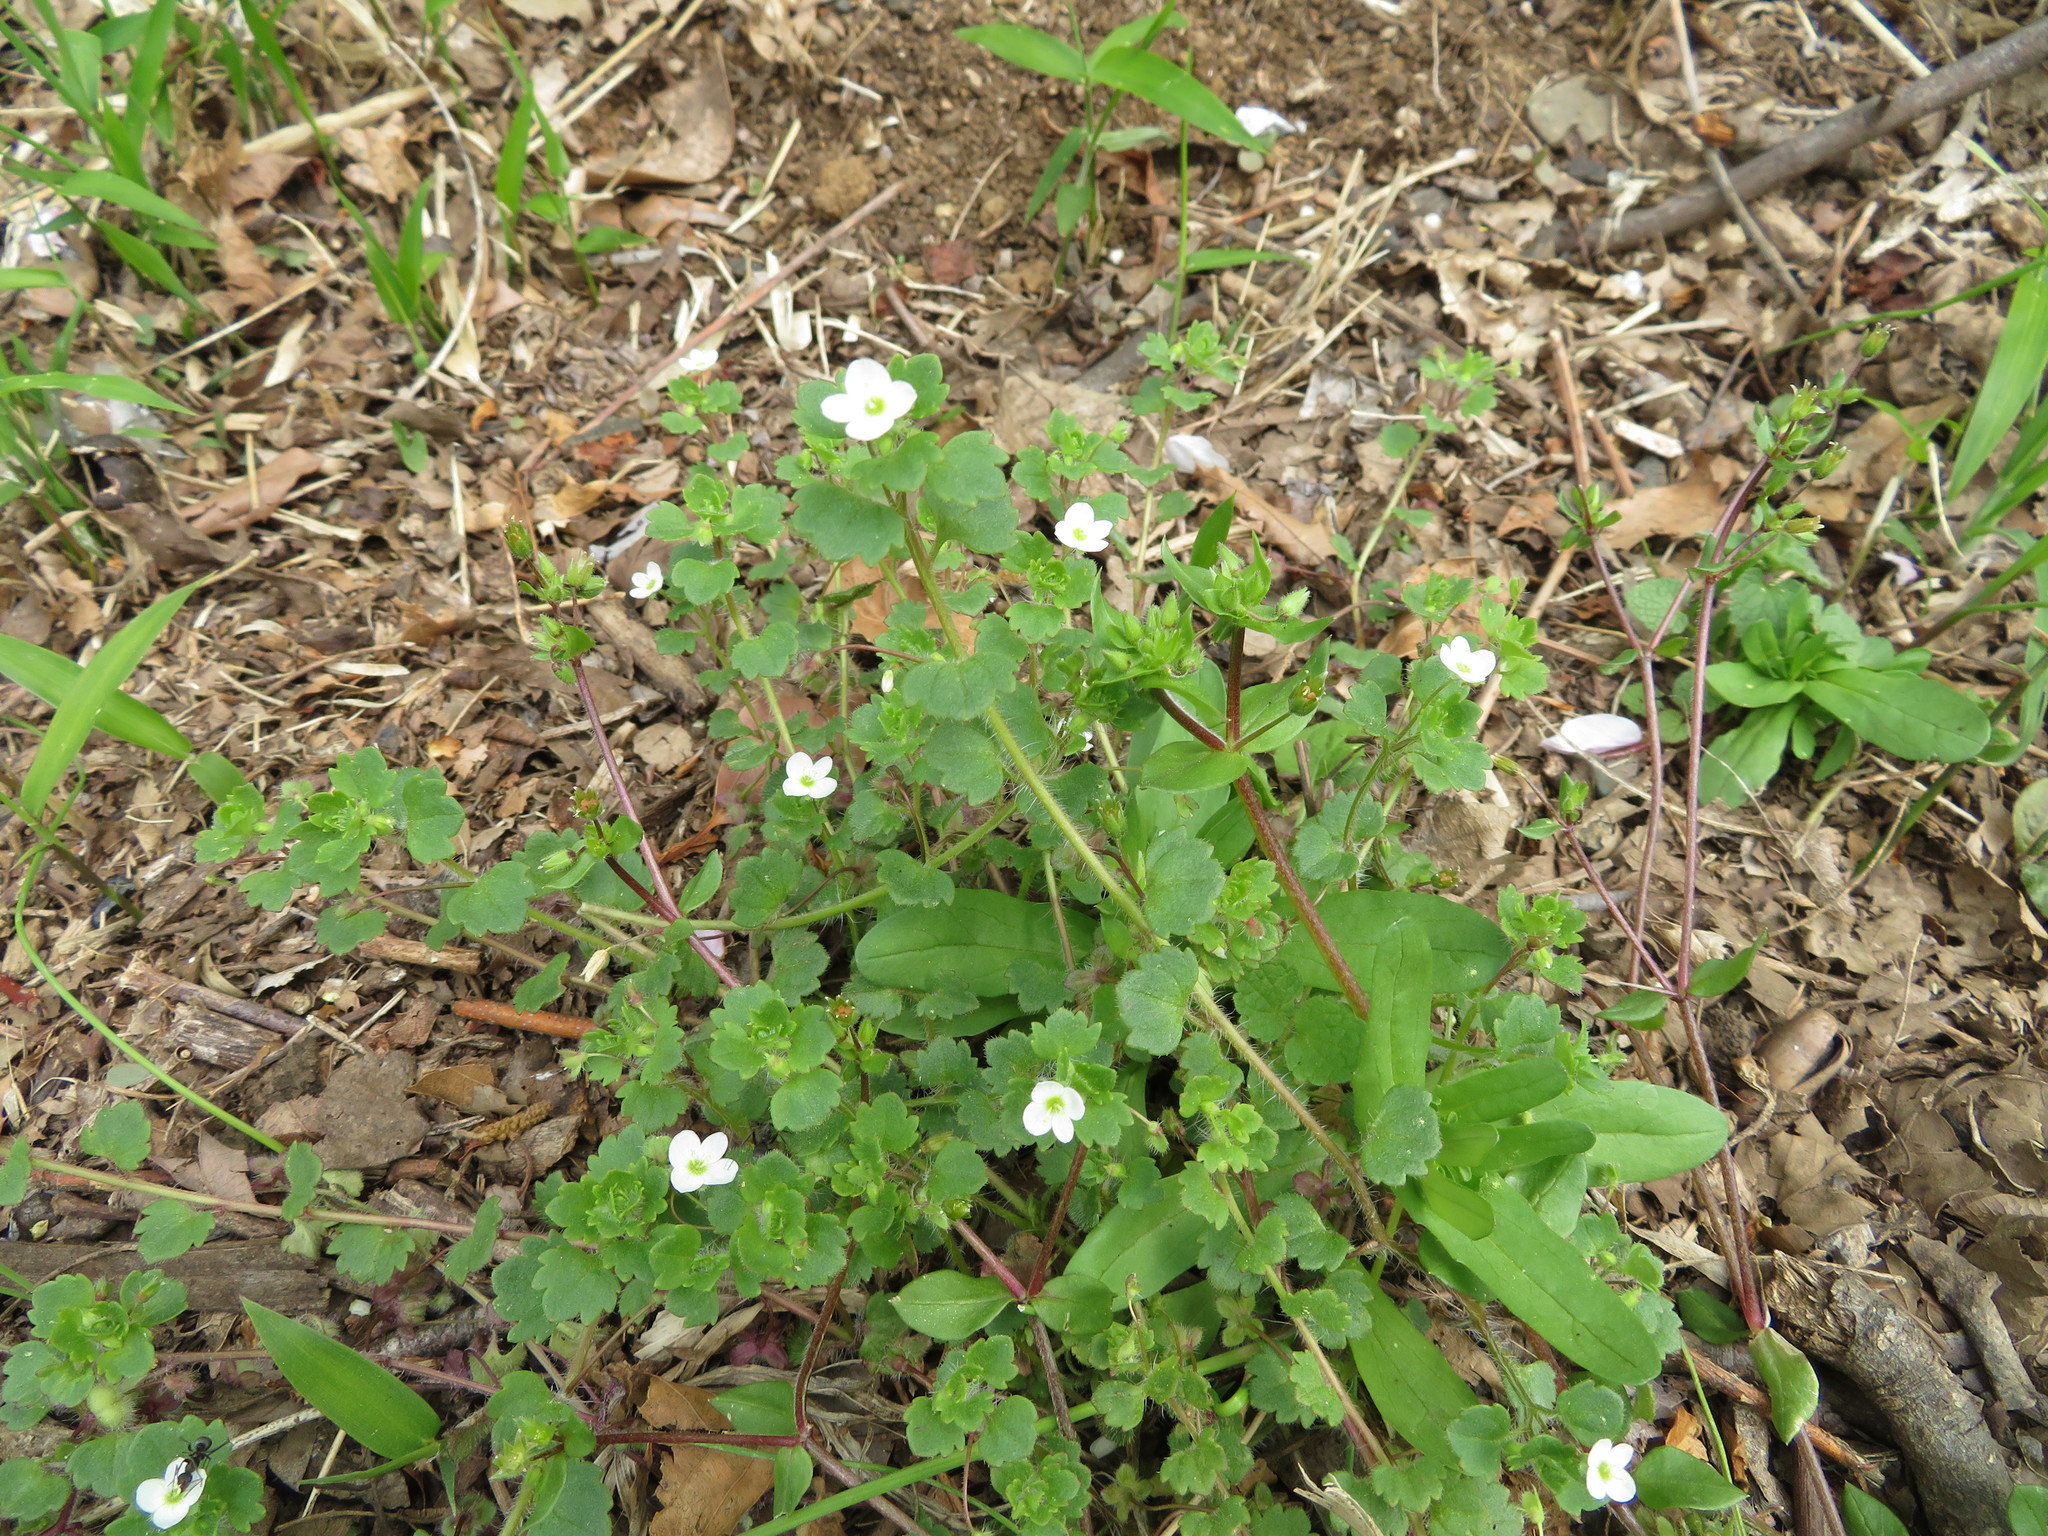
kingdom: Plantae
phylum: Tracheophyta
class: Magnoliopsida
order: Lamiales
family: Plantaginaceae
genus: Veronica
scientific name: Veronica cymbalaria
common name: Pale speedwell
